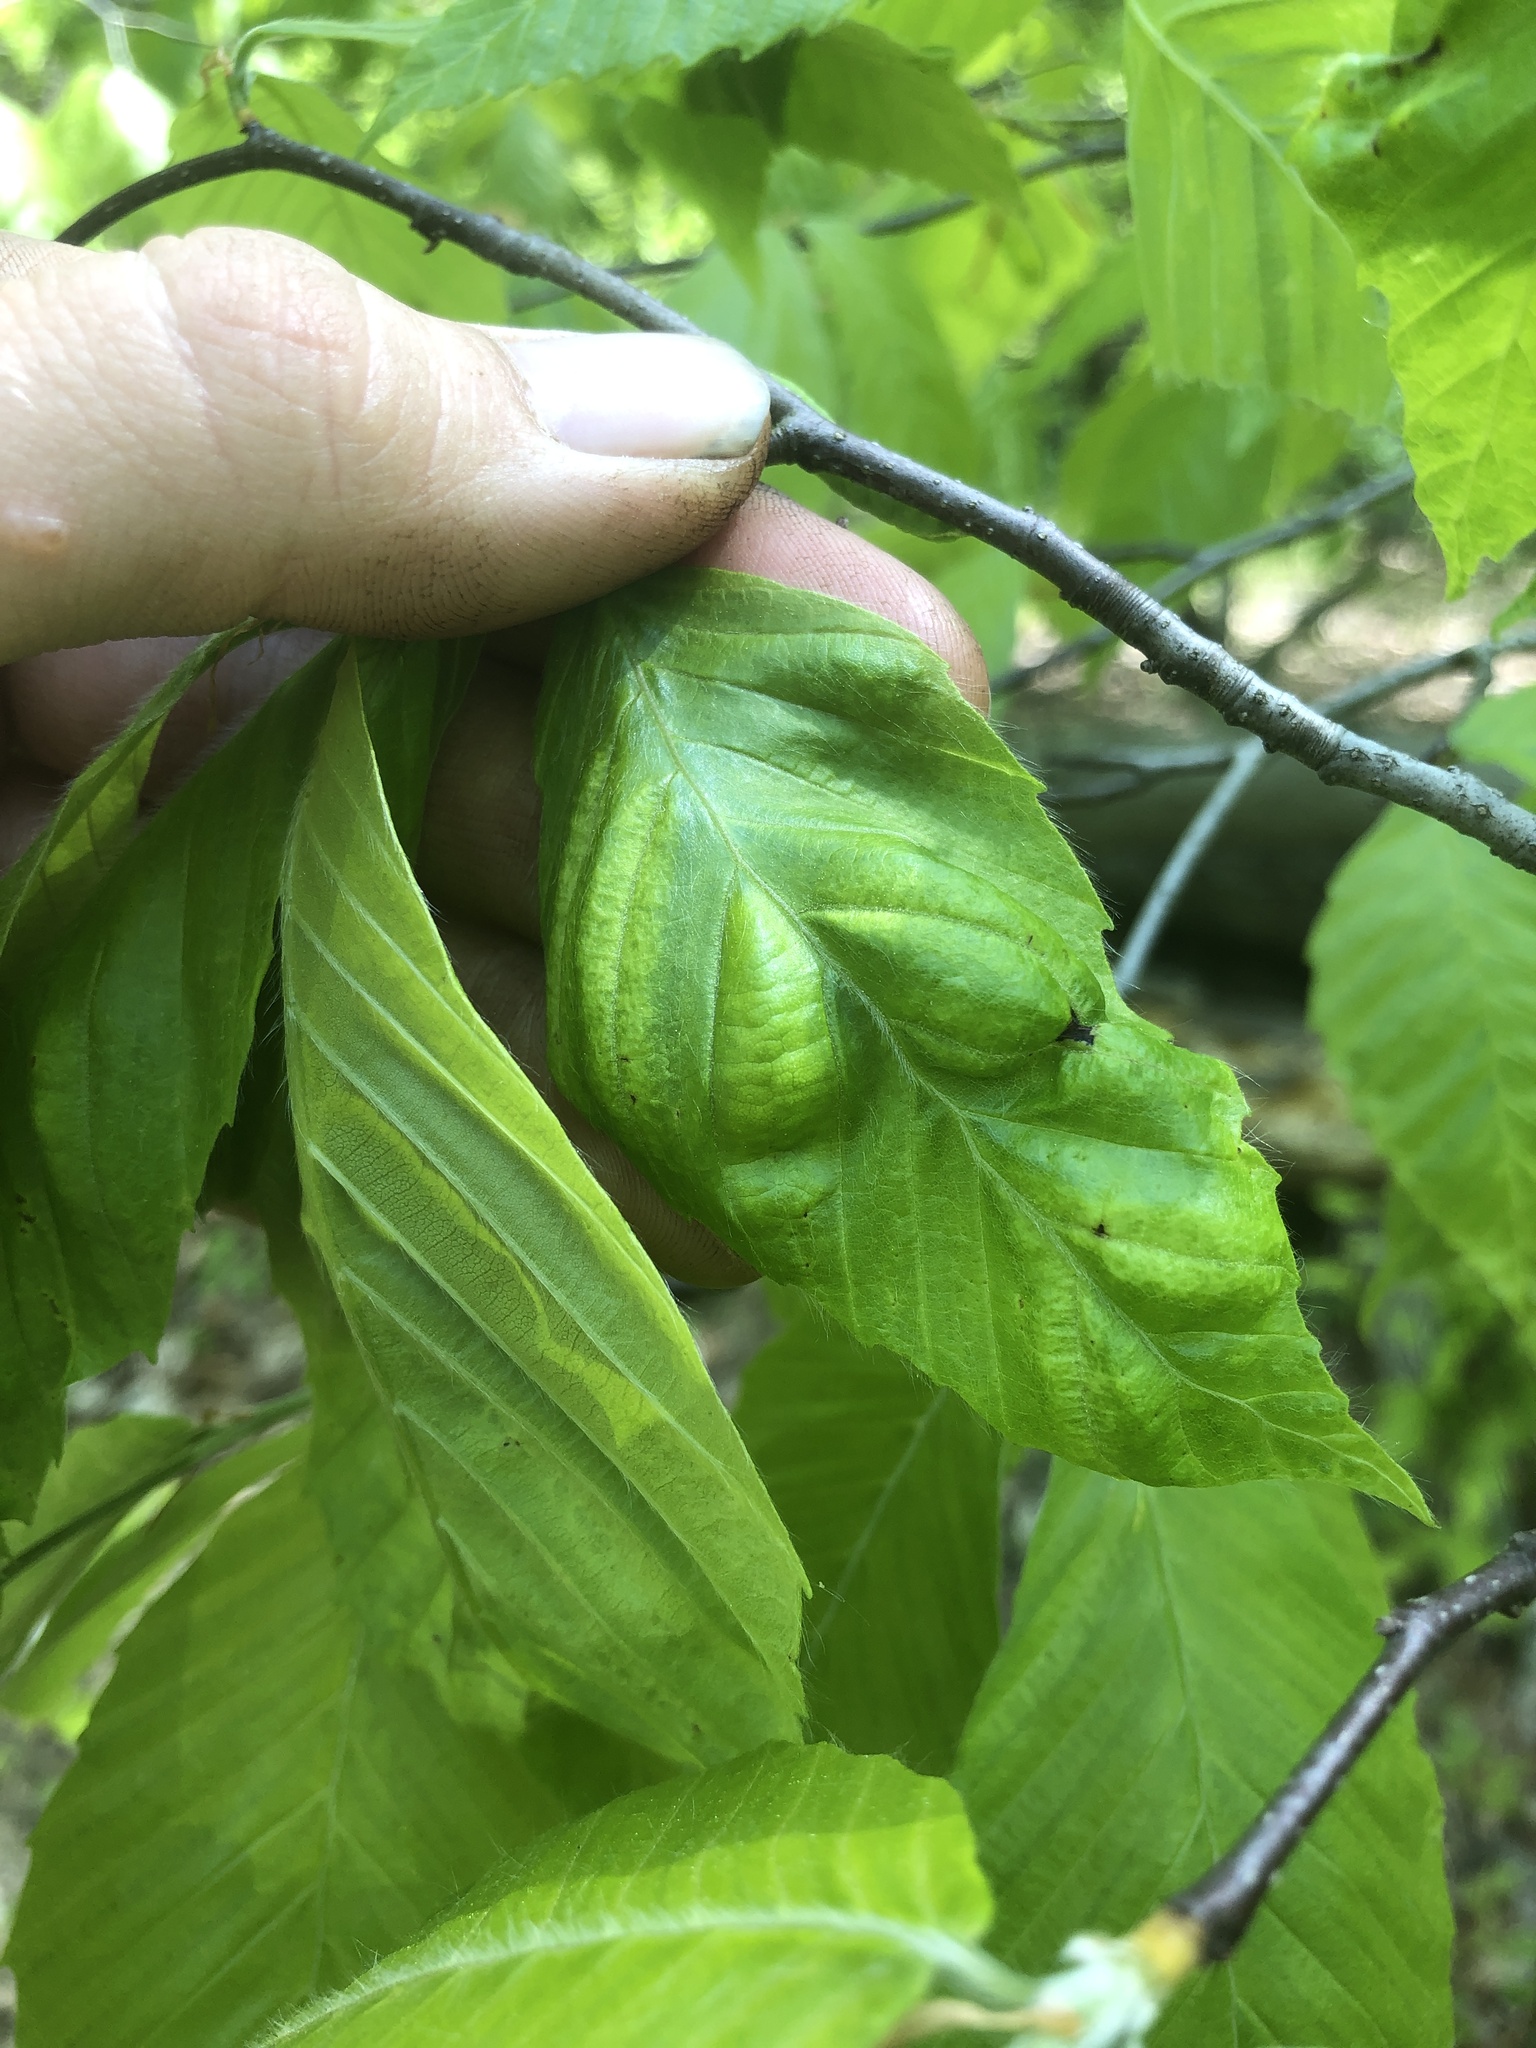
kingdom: Animalia
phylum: Nematoda
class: Chromadorea
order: Rhabditida
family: Anguinidae
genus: Litylenchus
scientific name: Litylenchus crenatae
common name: Beech leaf disease
